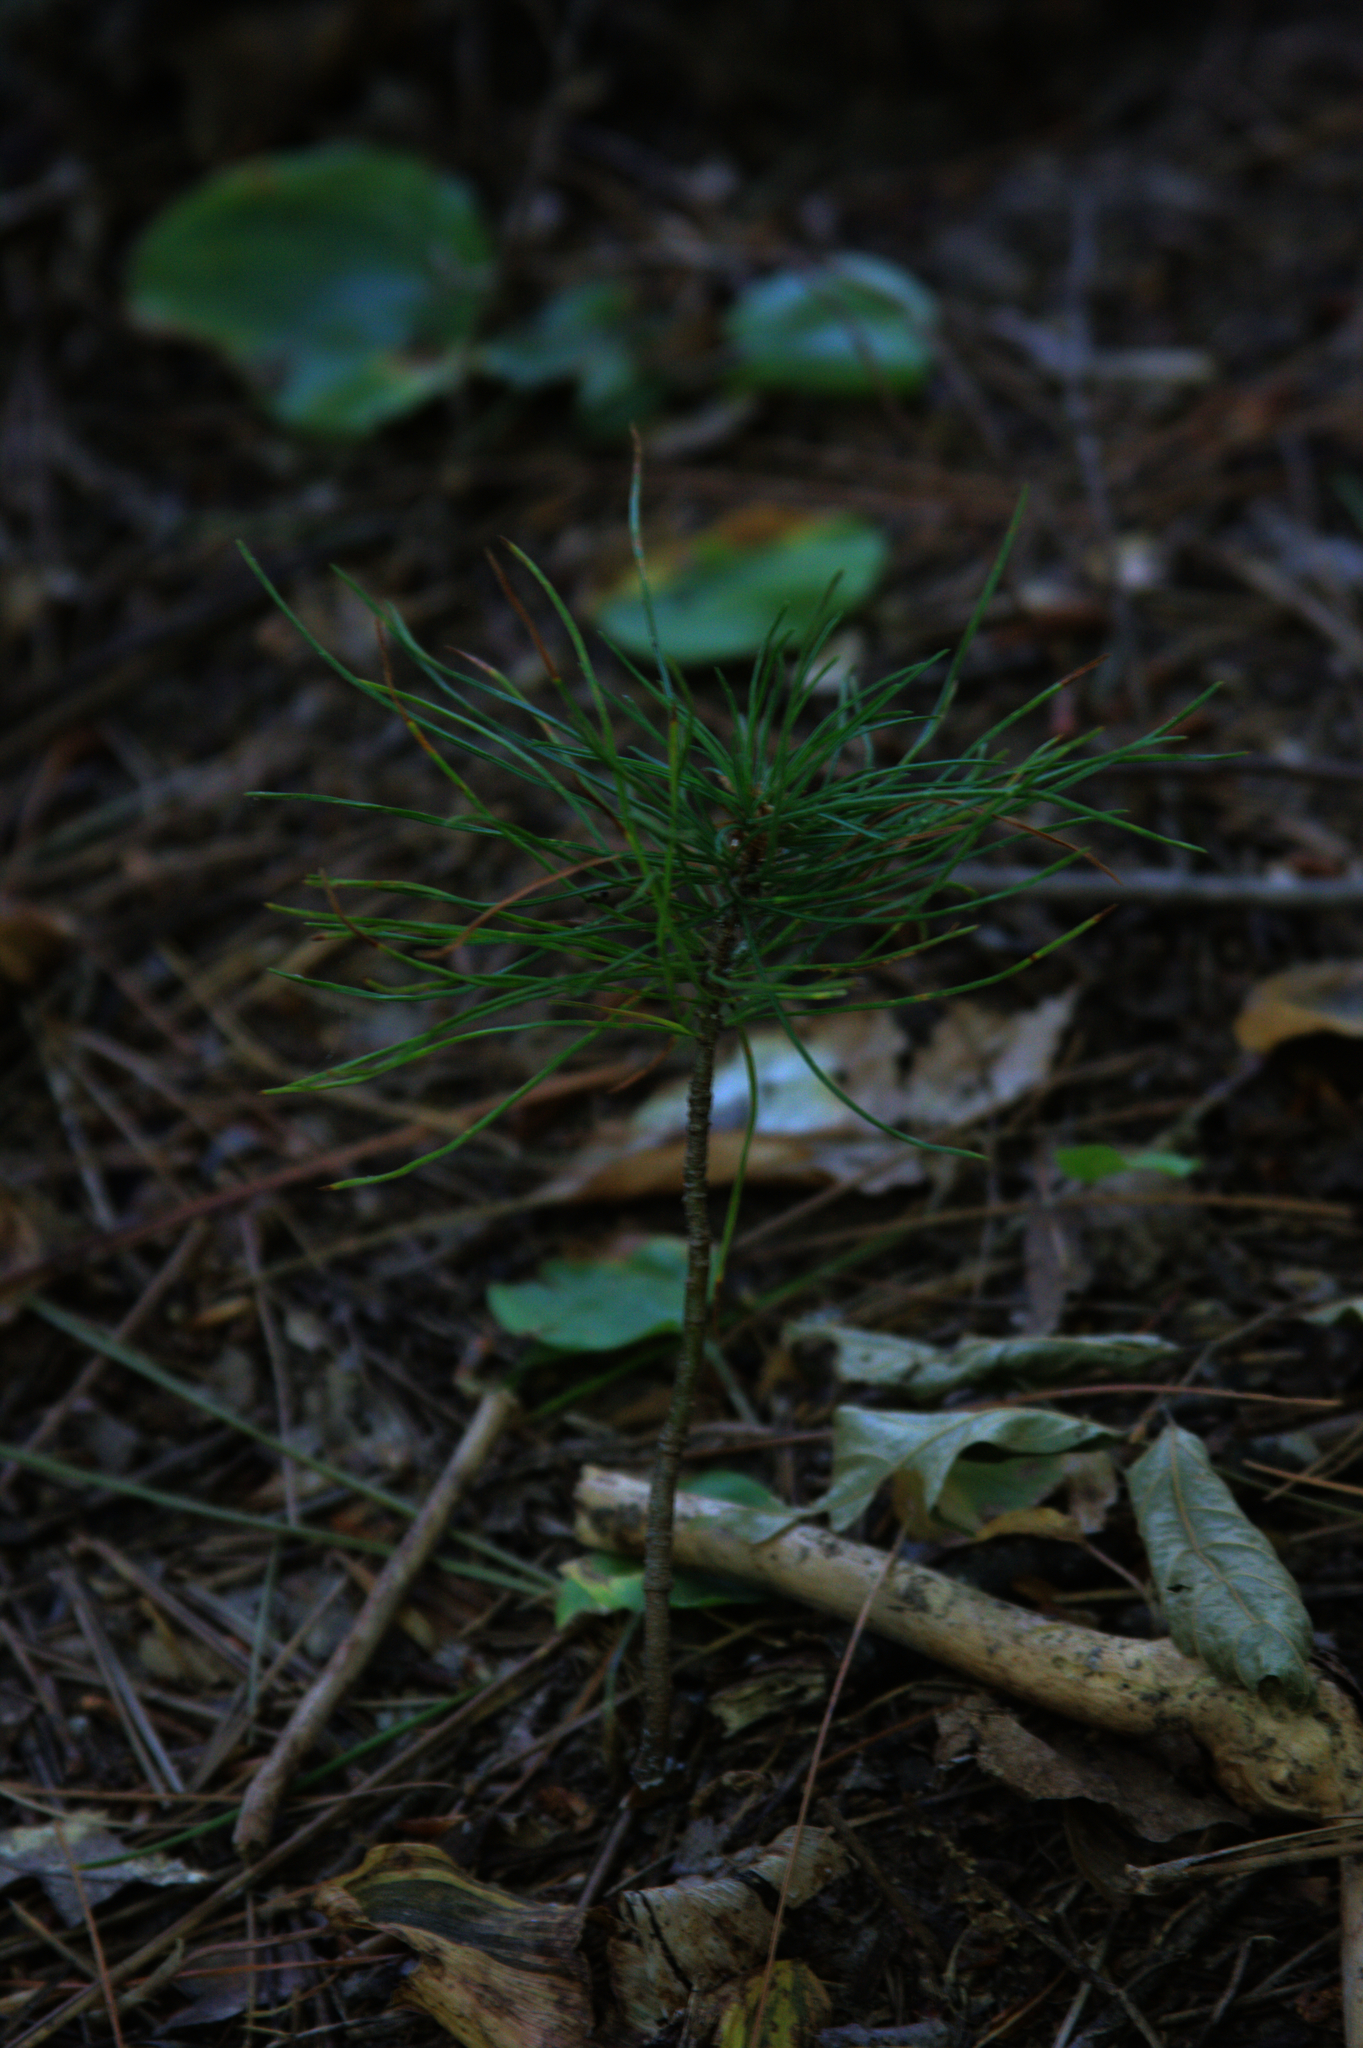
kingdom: Plantae
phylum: Tracheophyta
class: Pinopsida
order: Pinales
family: Pinaceae
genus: Pinus
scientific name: Pinus strobus
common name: Weymouth pine
